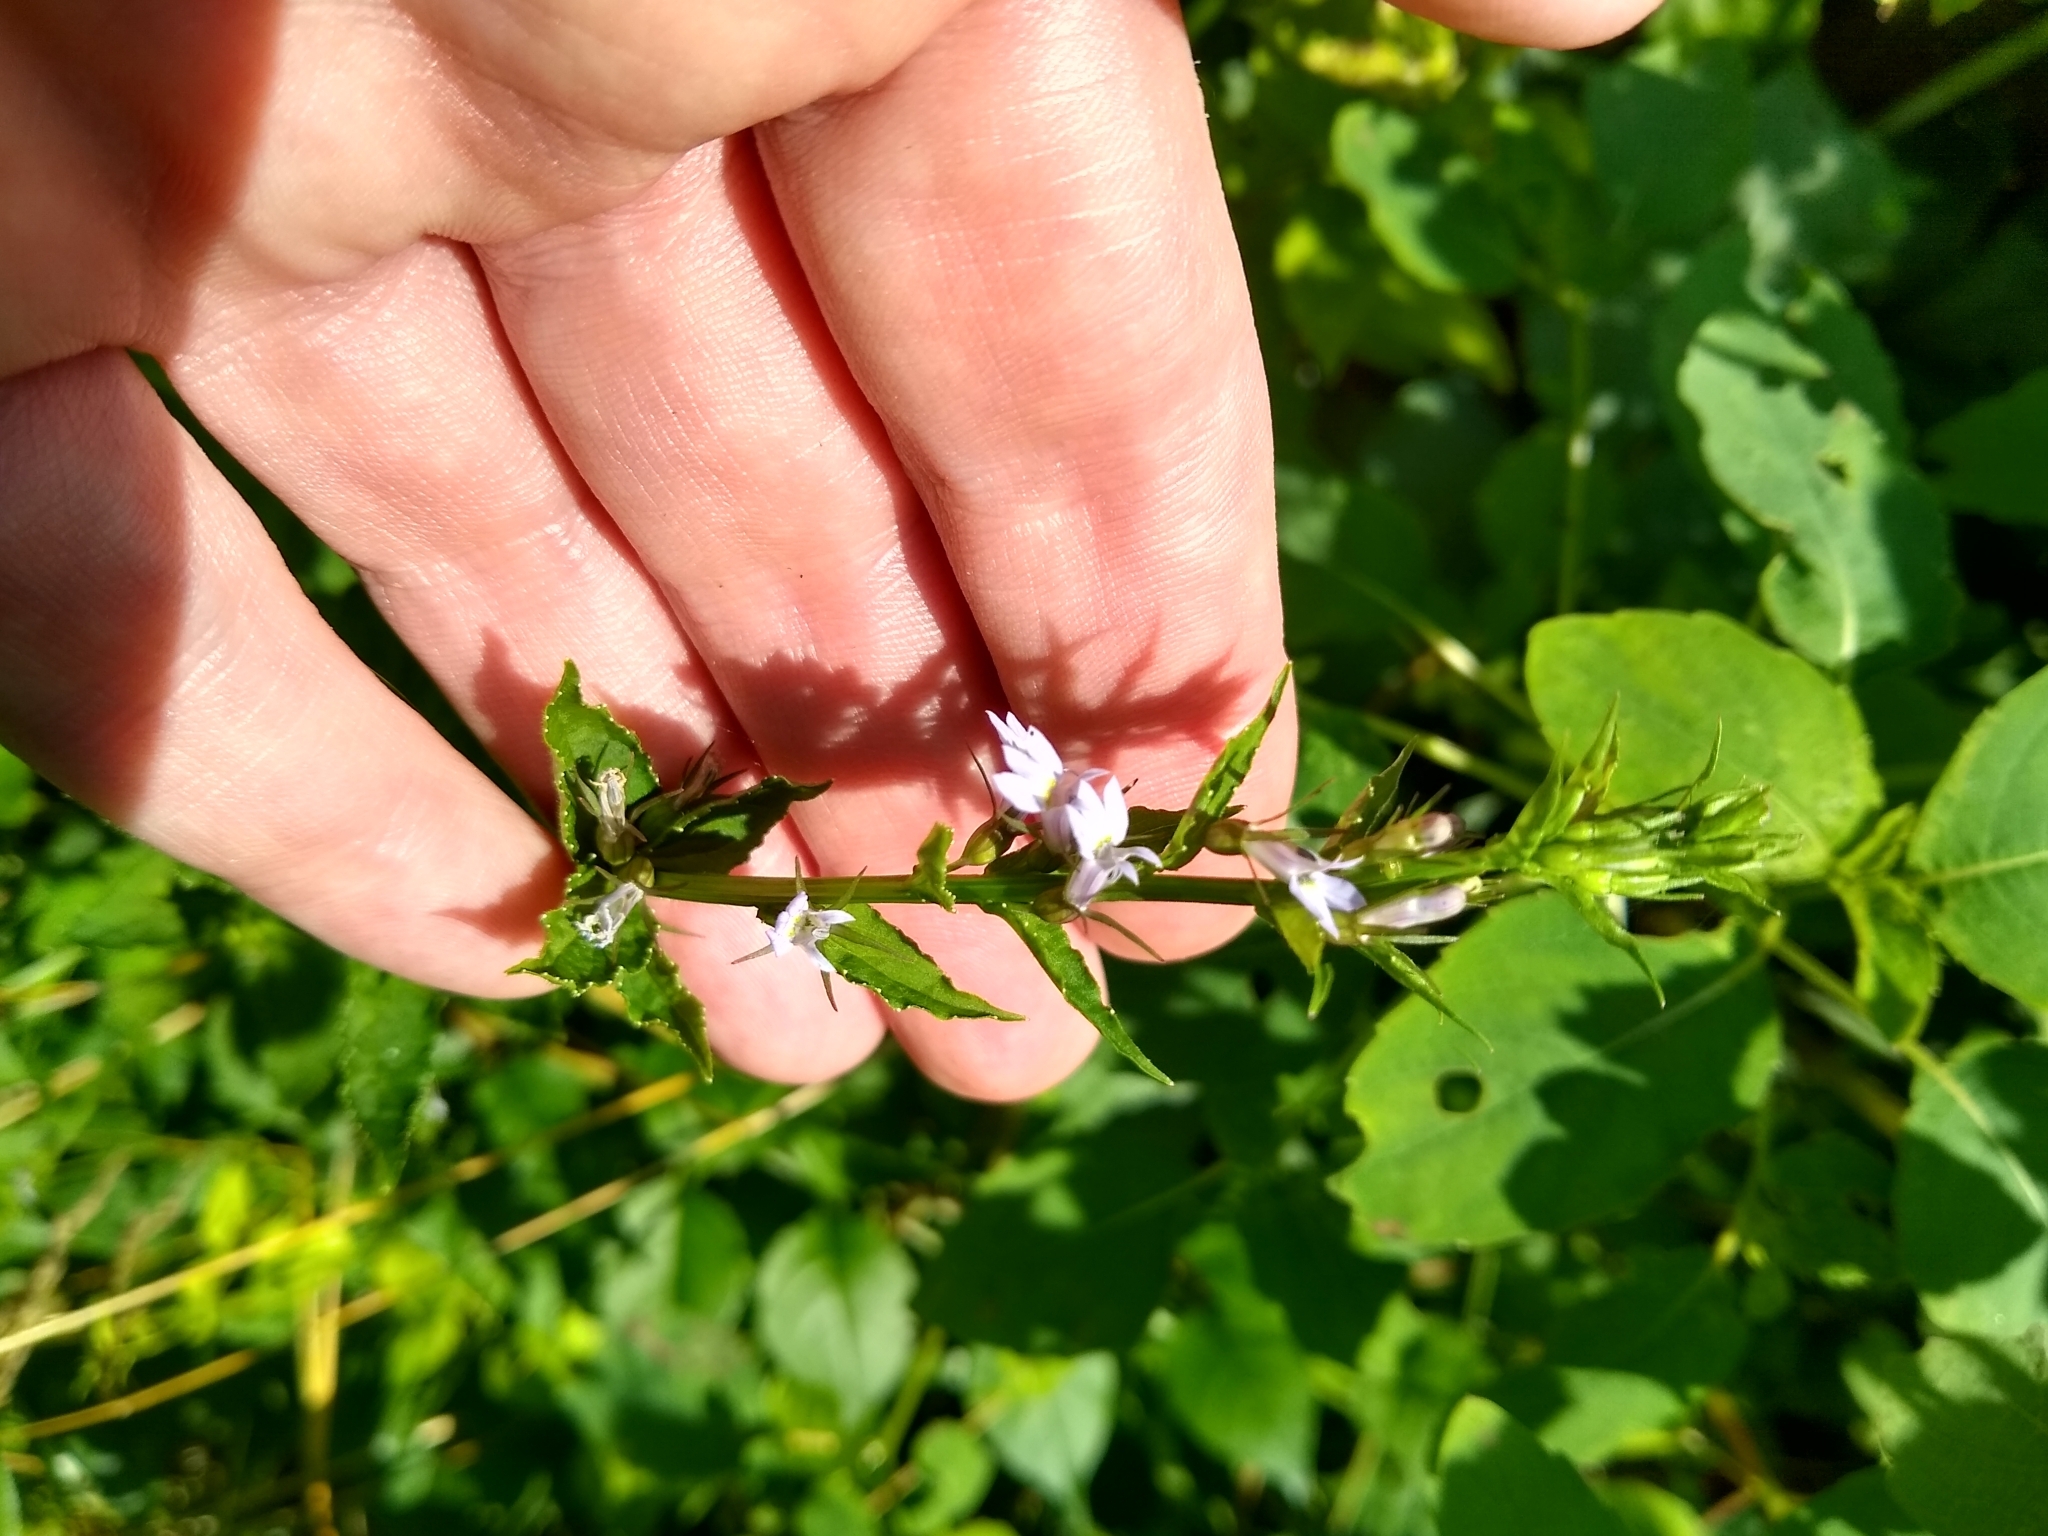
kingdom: Plantae
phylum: Tracheophyta
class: Magnoliopsida
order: Asterales
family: Campanulaceae
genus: Lobelia
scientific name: Lobelia inflata
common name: Indian tobacco
